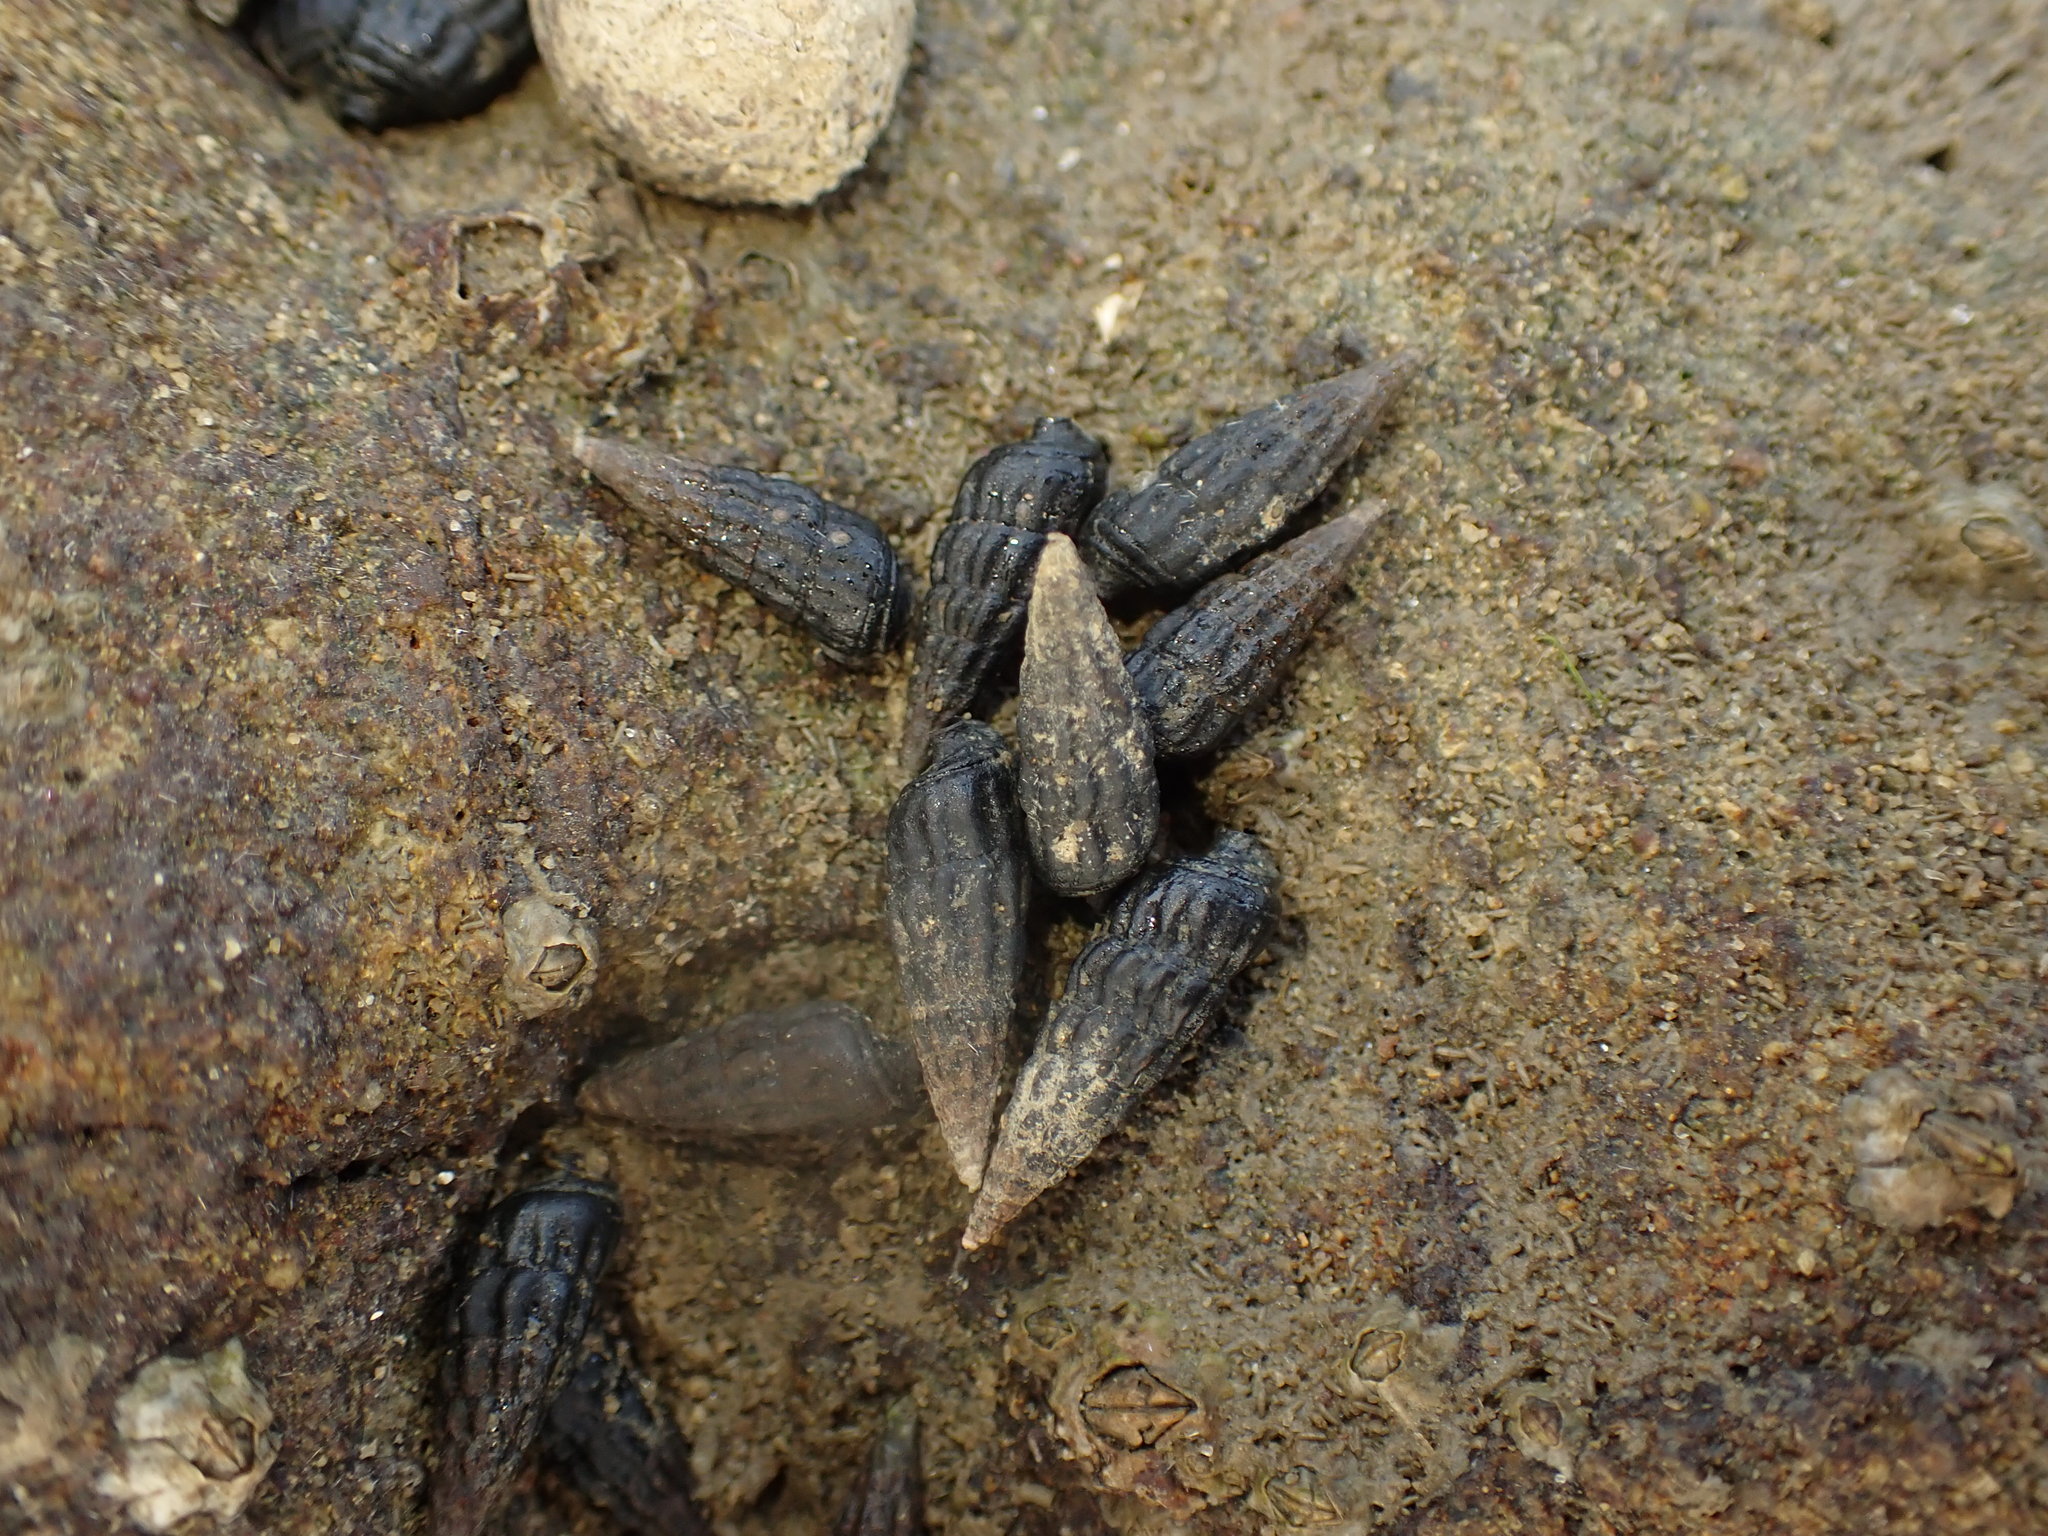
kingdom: Animalia
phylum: Mollusca
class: Gastropoda
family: Batillariidae
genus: Zeacumantus
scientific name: Zeacumantus subcarinatus
